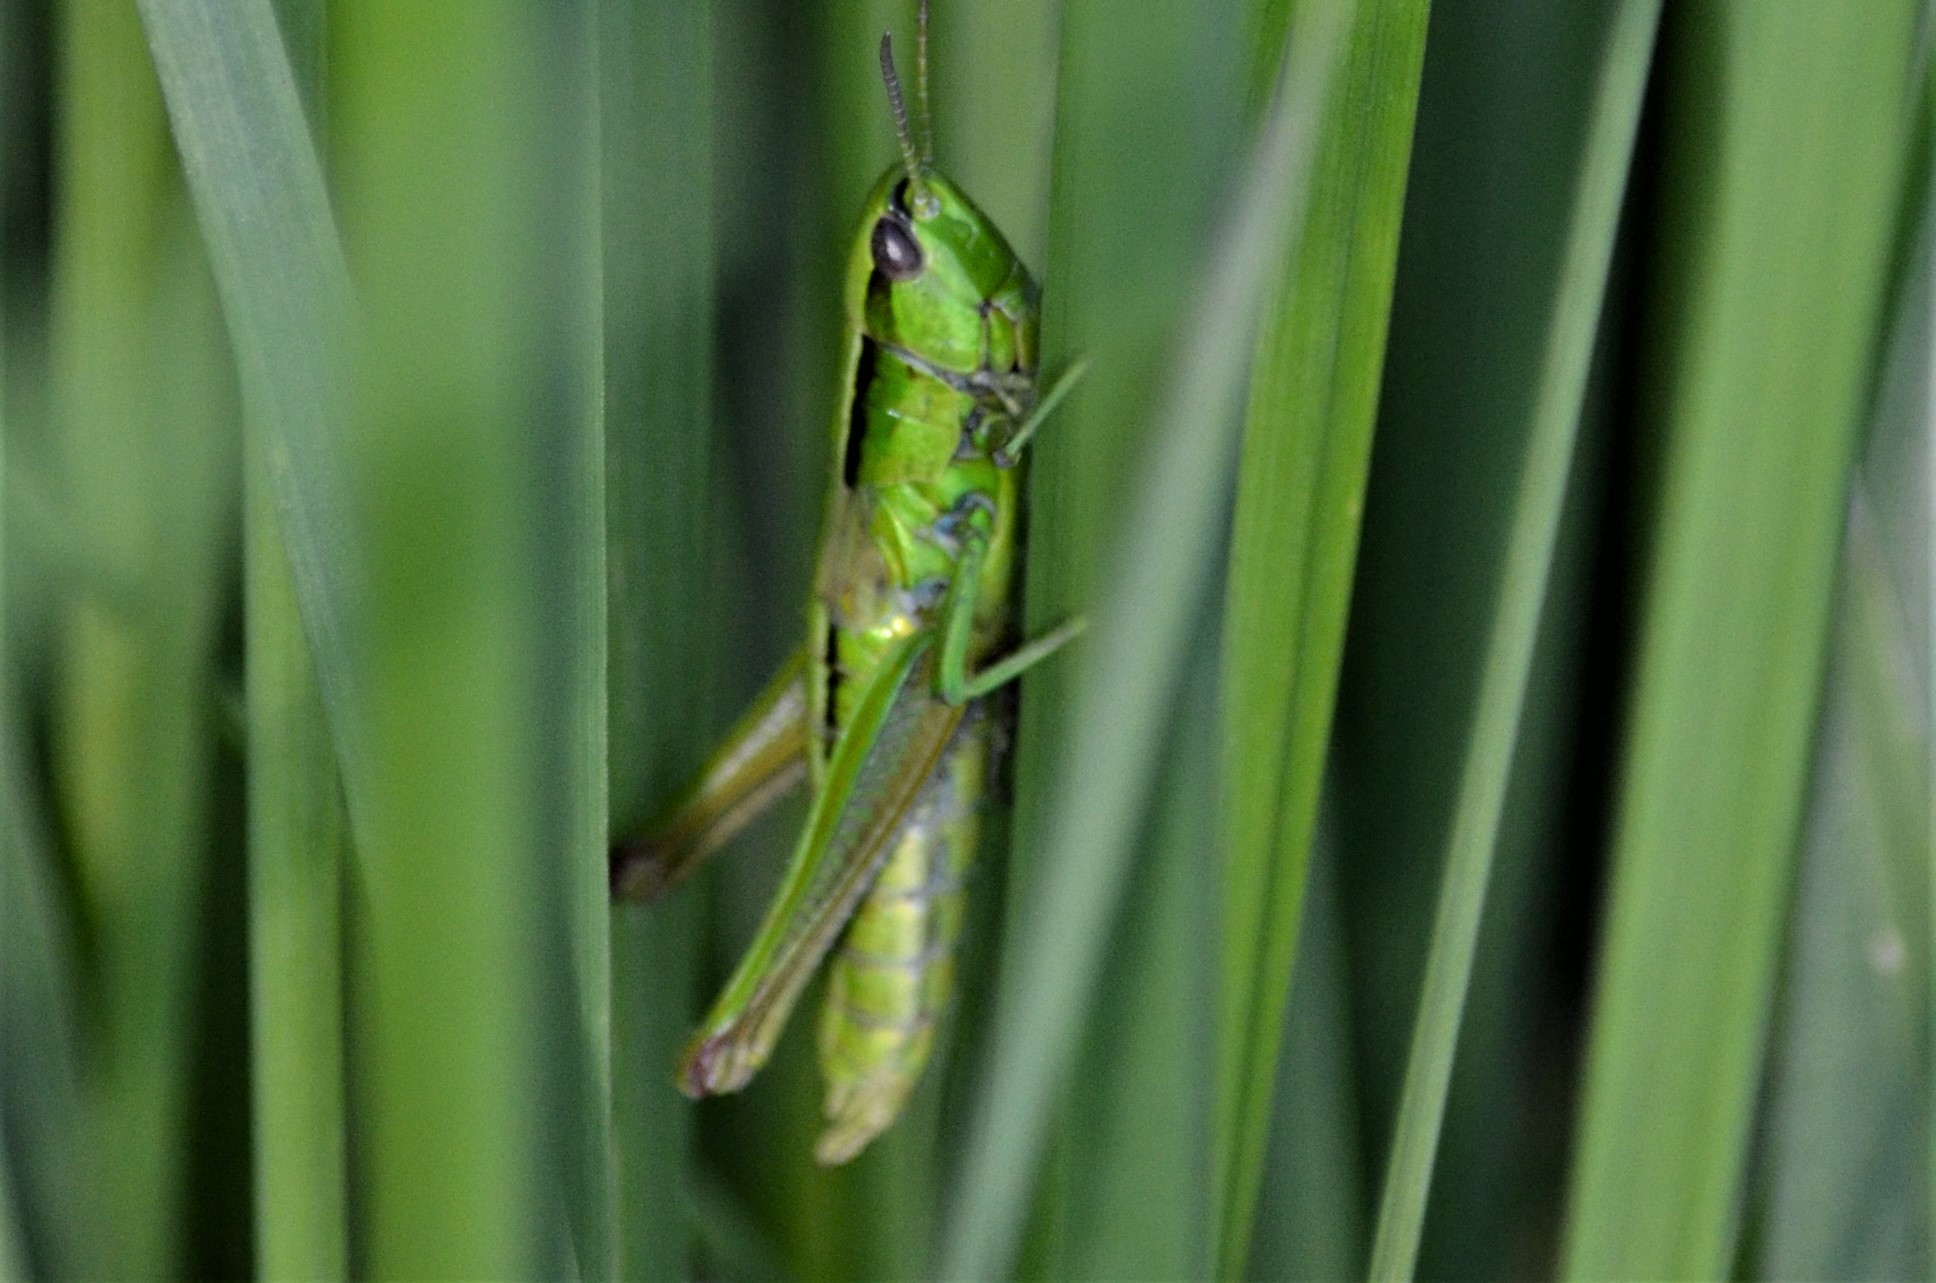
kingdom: Animalia
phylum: Arthropoda
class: Insecta
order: Orthoptera
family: Acrididae
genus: Euthystira
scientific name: Euthystira brachyptera
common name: Small gold grasshopper
